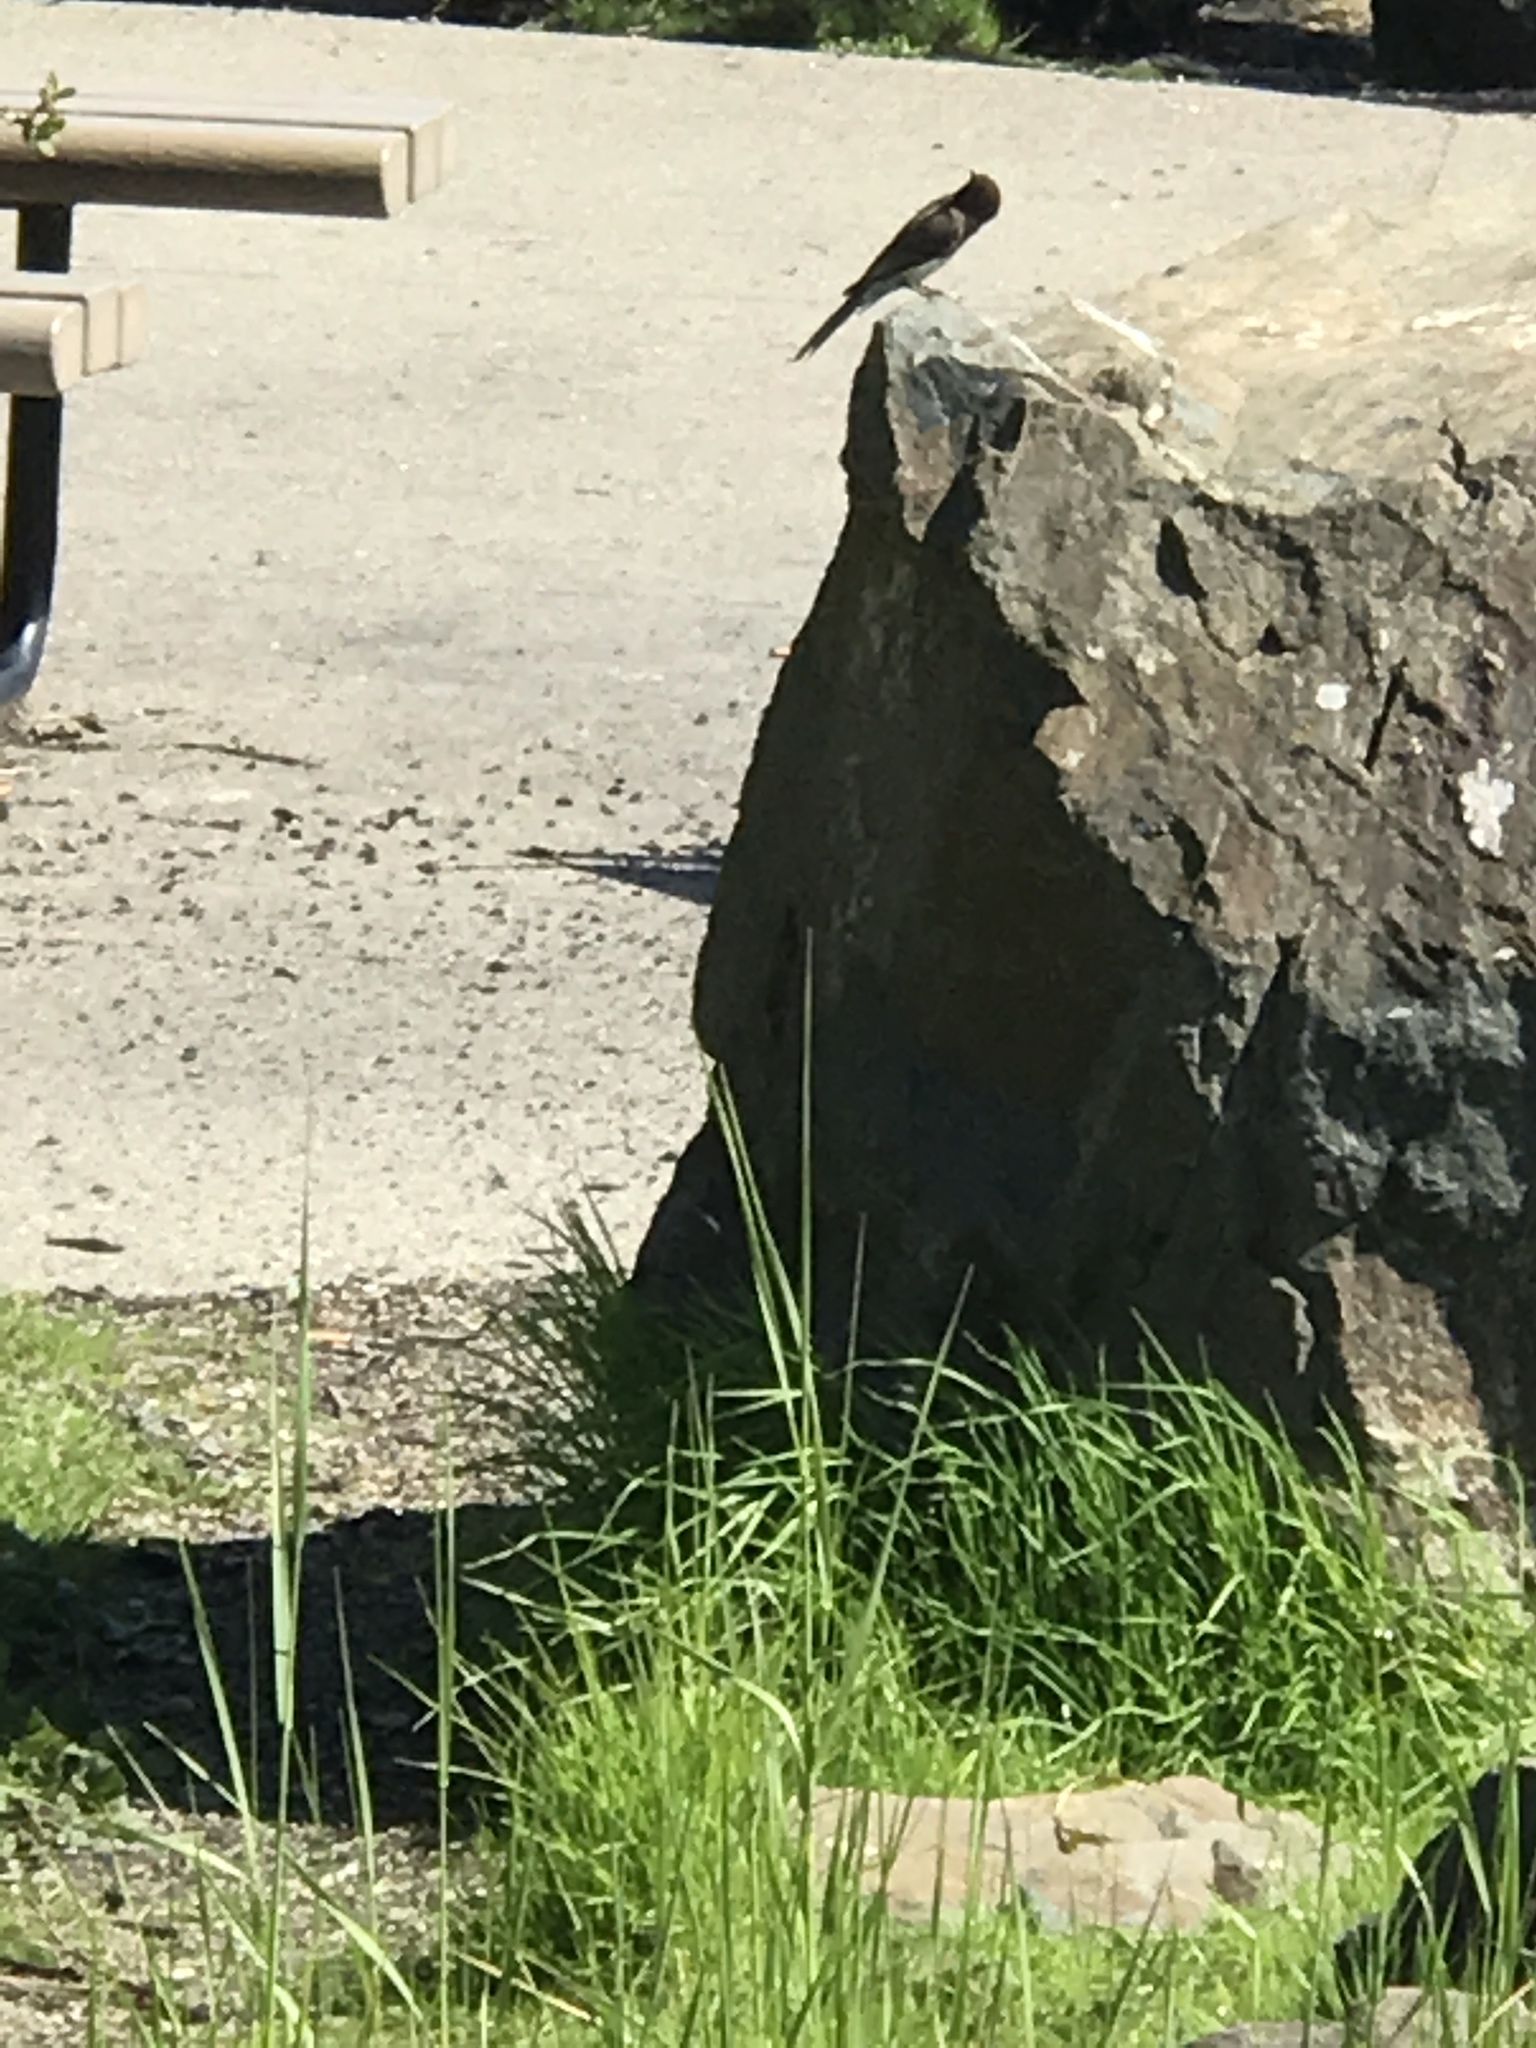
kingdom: Animalia
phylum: Chordata
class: Aves
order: Passeriformes
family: Tyrannidae
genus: Sayornis
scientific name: Sayornis nigricans
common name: Black phoebe
